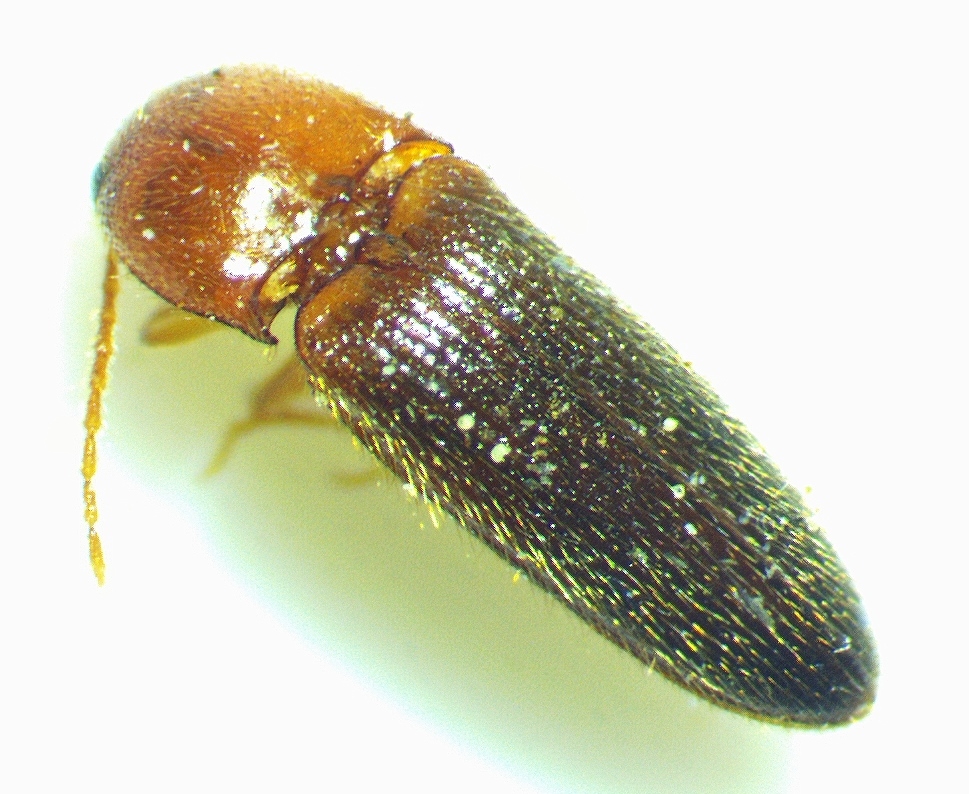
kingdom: Animalia
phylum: Arthropoda
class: Insecta
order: Coleoptera
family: Elateridae
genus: Ampedus
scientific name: Ampedus pusio
